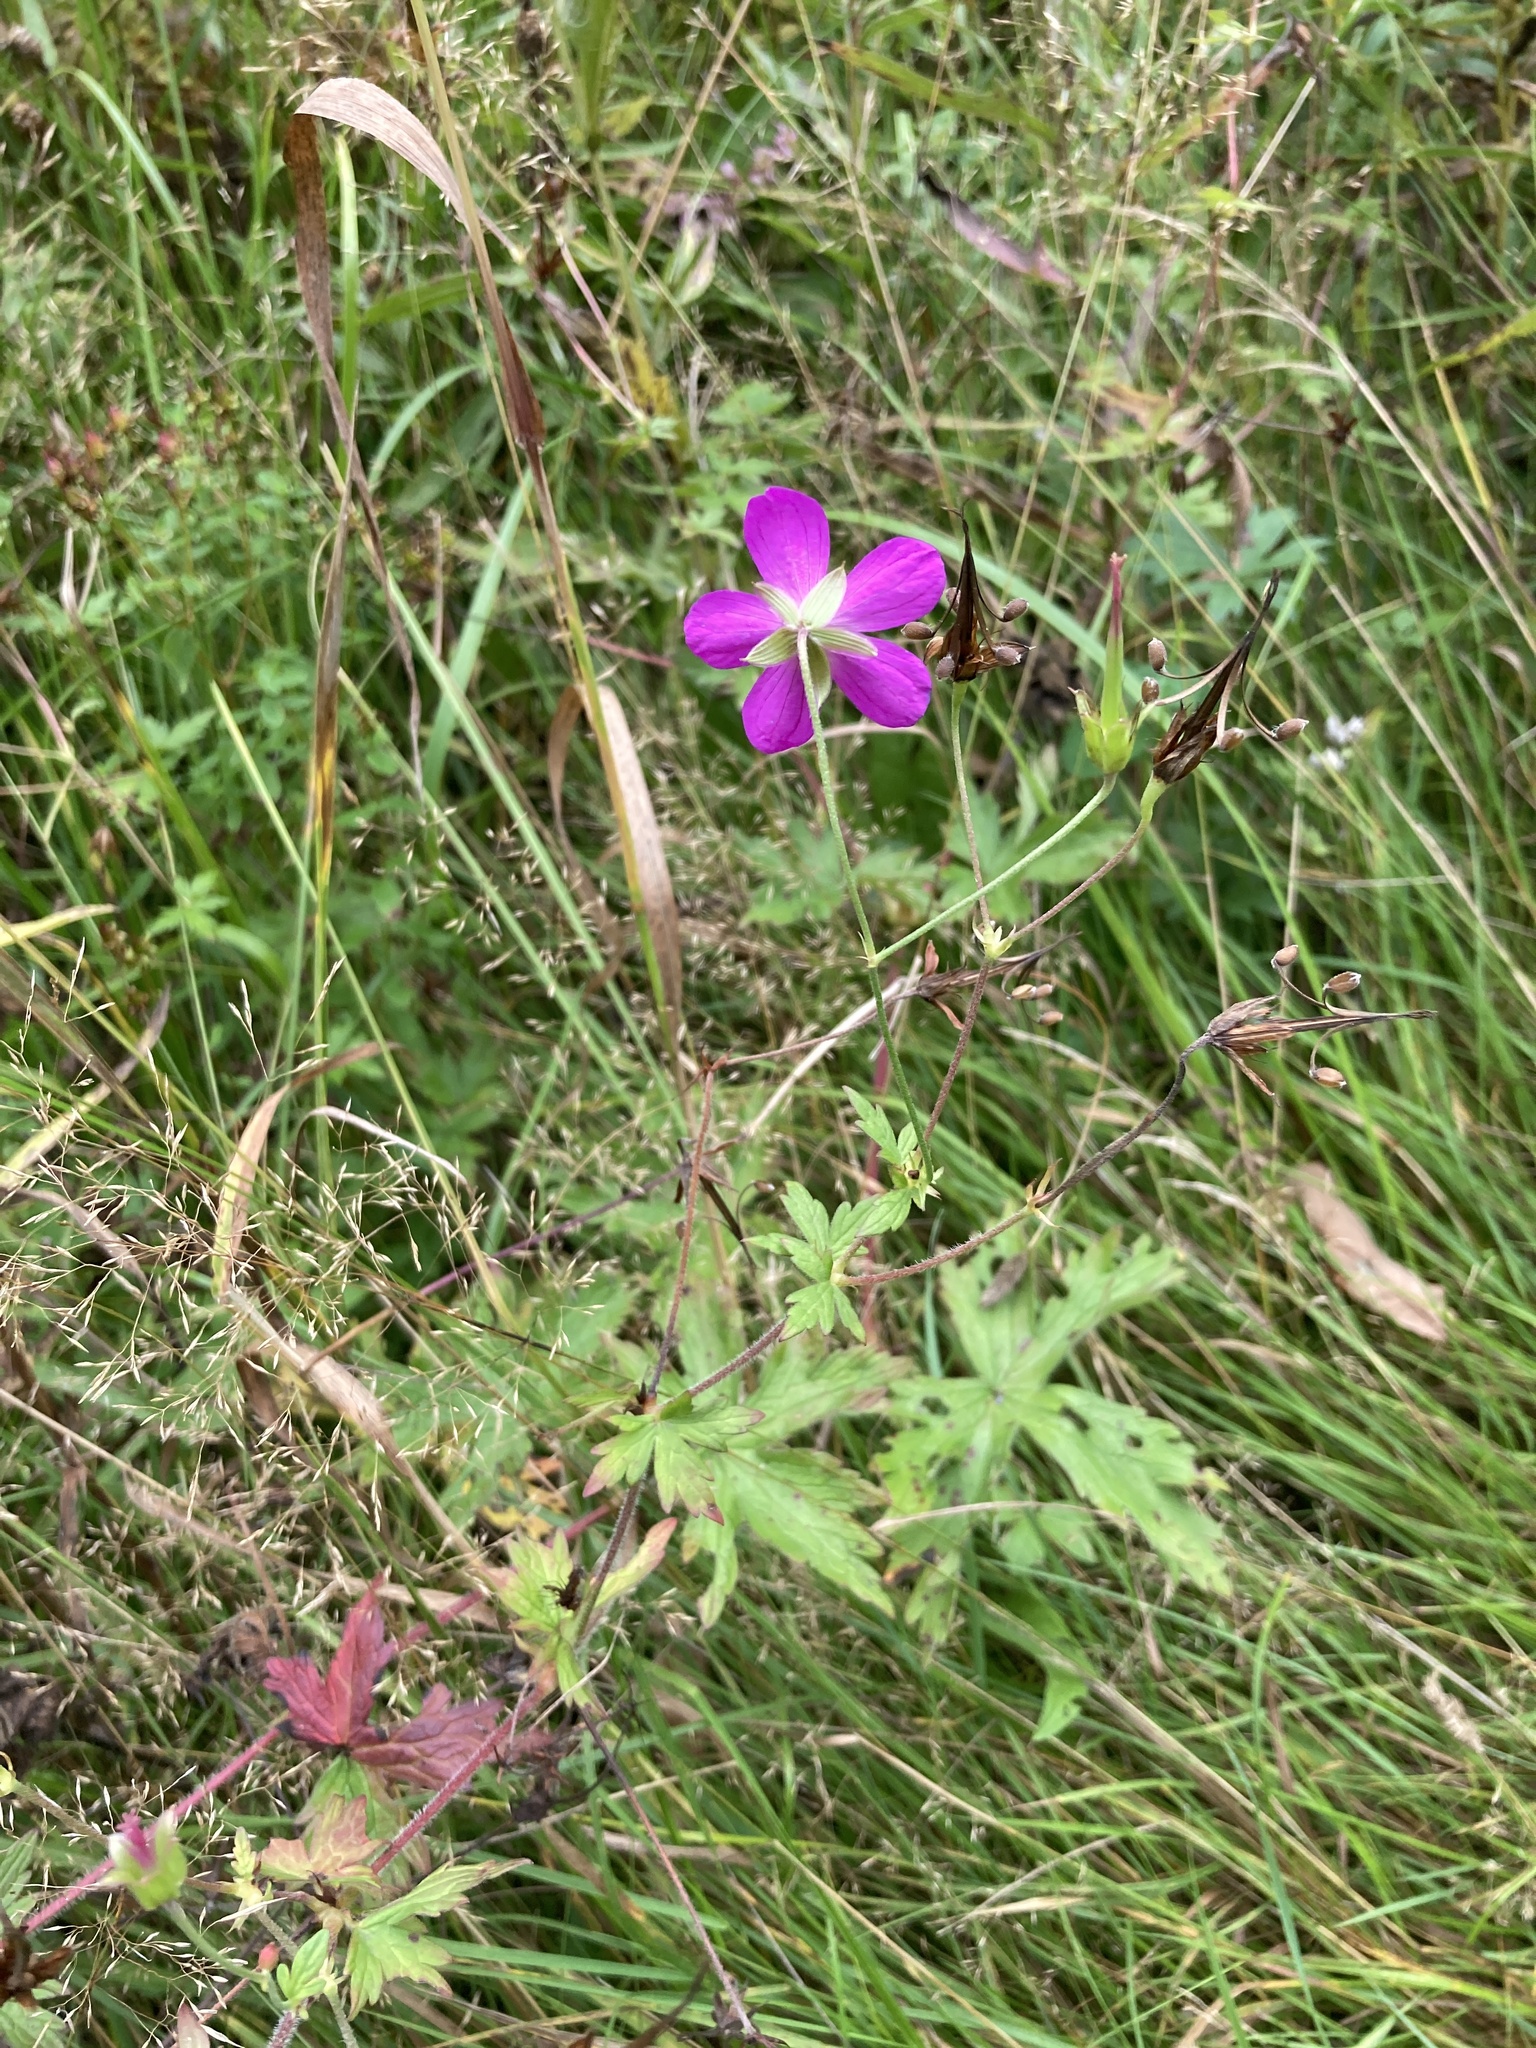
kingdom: Plantae
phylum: Tracheophyta
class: Magnoliopsida
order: Geraniales
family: Geraniaceae
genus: Geranium
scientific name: Geranium palustre
